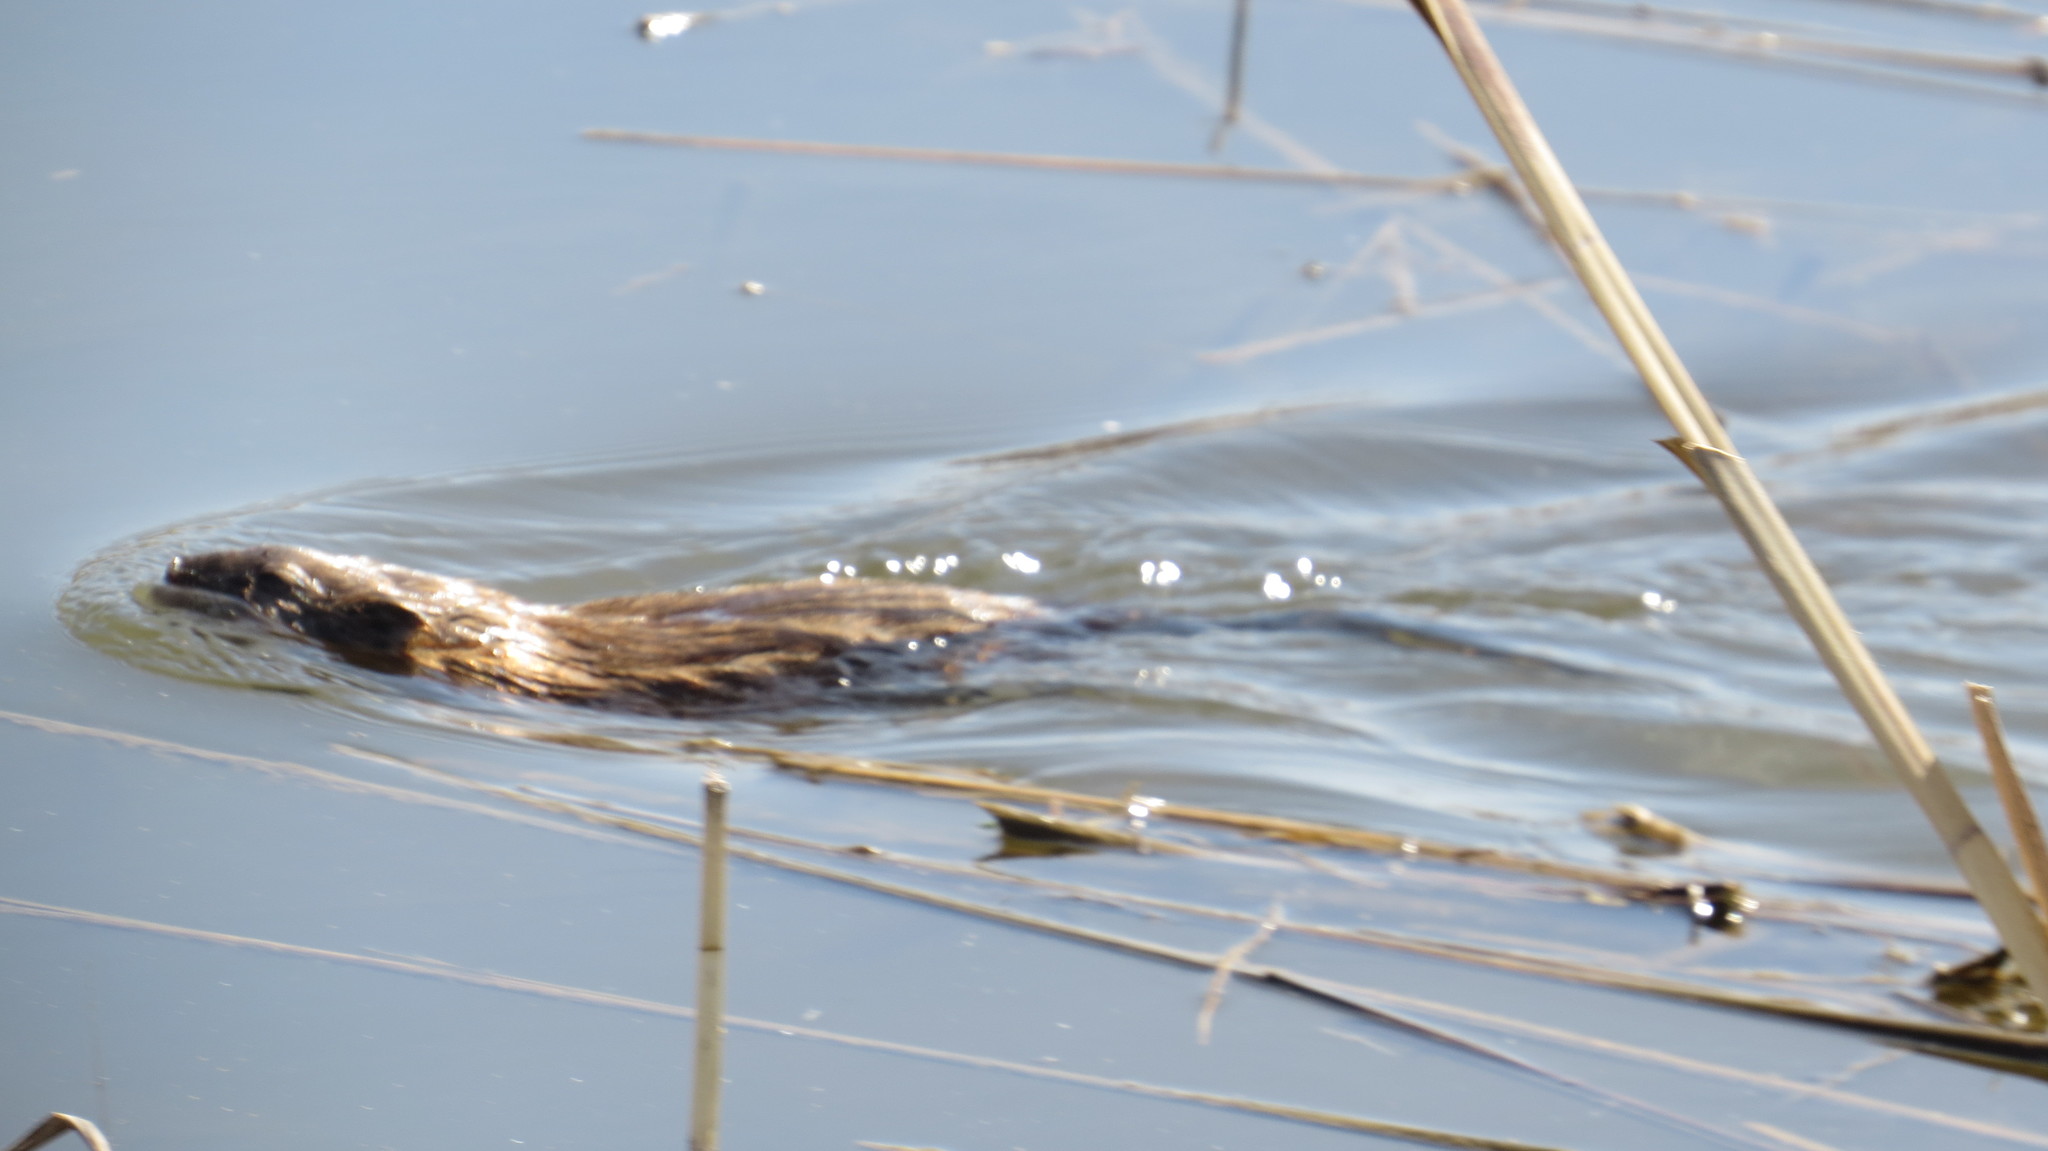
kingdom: Animalia
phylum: Chordata
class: Mammalia
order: Rodentia
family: Cricetidae
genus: Ondatra
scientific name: Ondatra zibethicus
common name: Muskrat
